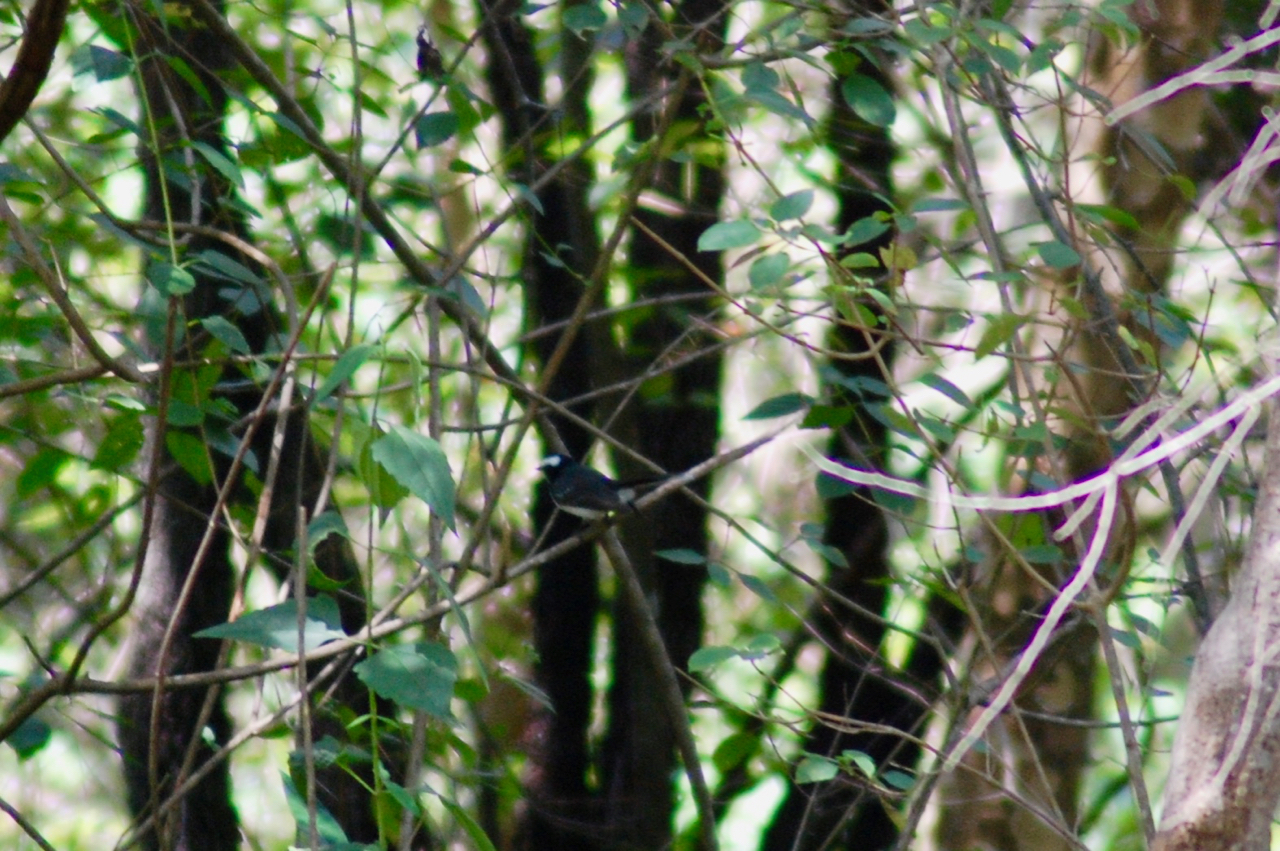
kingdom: Animalia
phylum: Chordata
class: Aves
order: Passeriformes
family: Rhipiduridae
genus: Rhipidura
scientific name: Rhipidura aureola
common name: White-browed fantail
